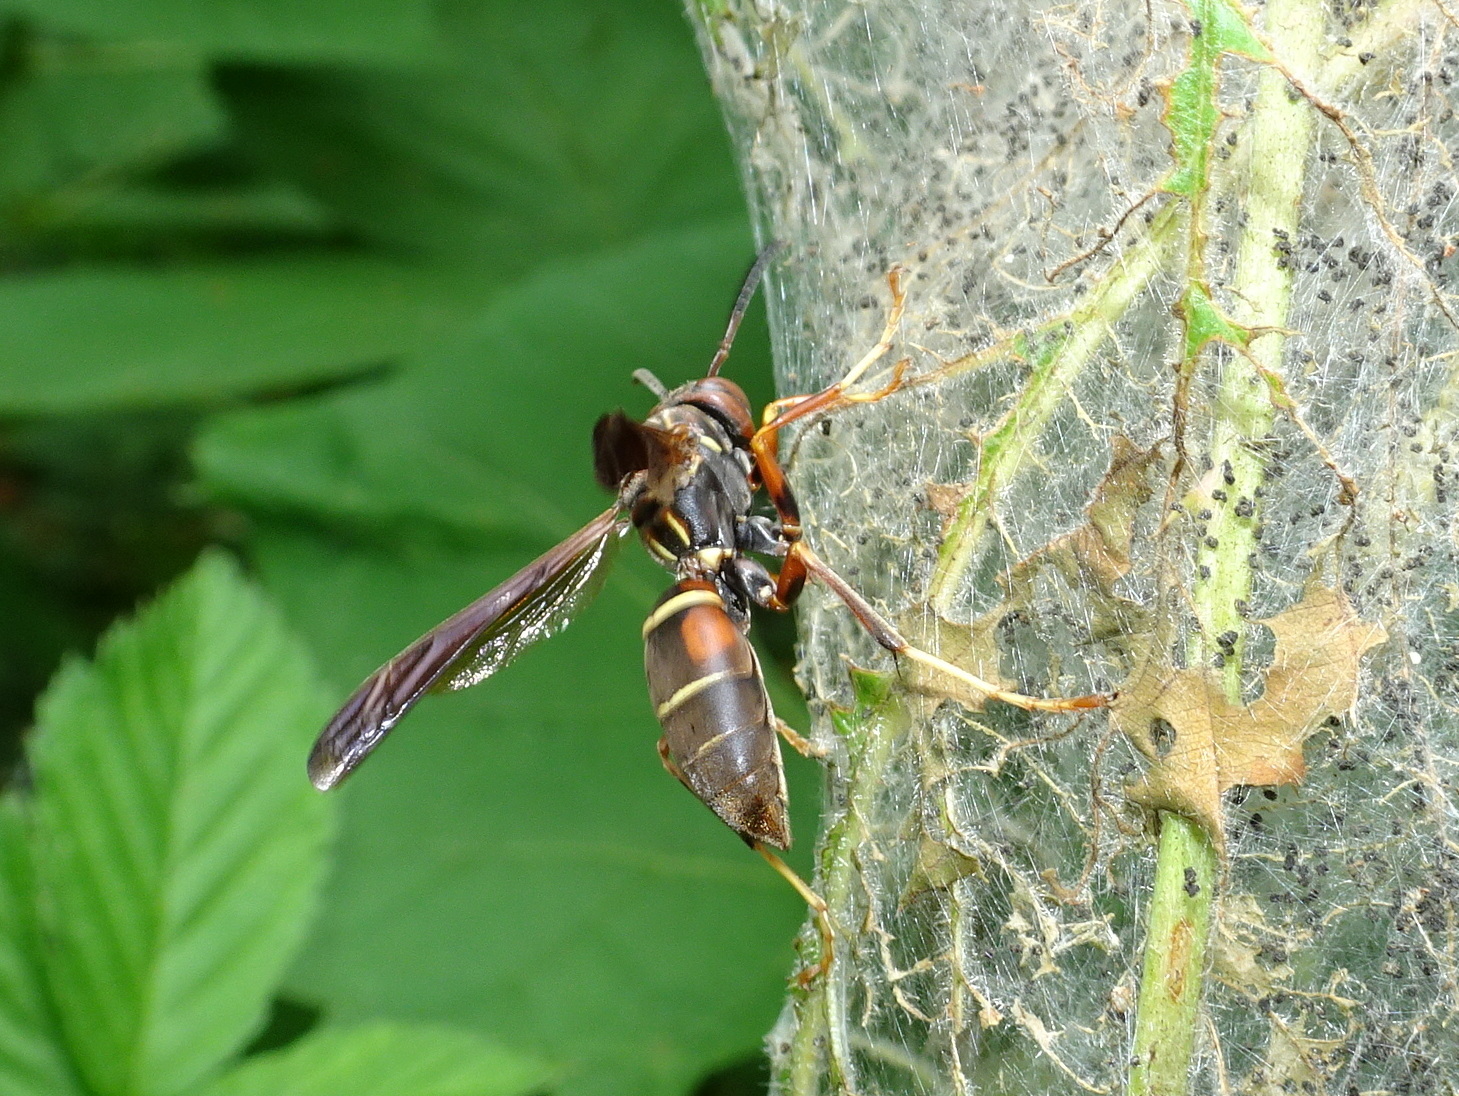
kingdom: Animalia
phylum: Arthropoda
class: Insecta
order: Hymenoptera
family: Eumenidae
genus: Polistes
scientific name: Polistes fuscatus
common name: Dark paper wasp
